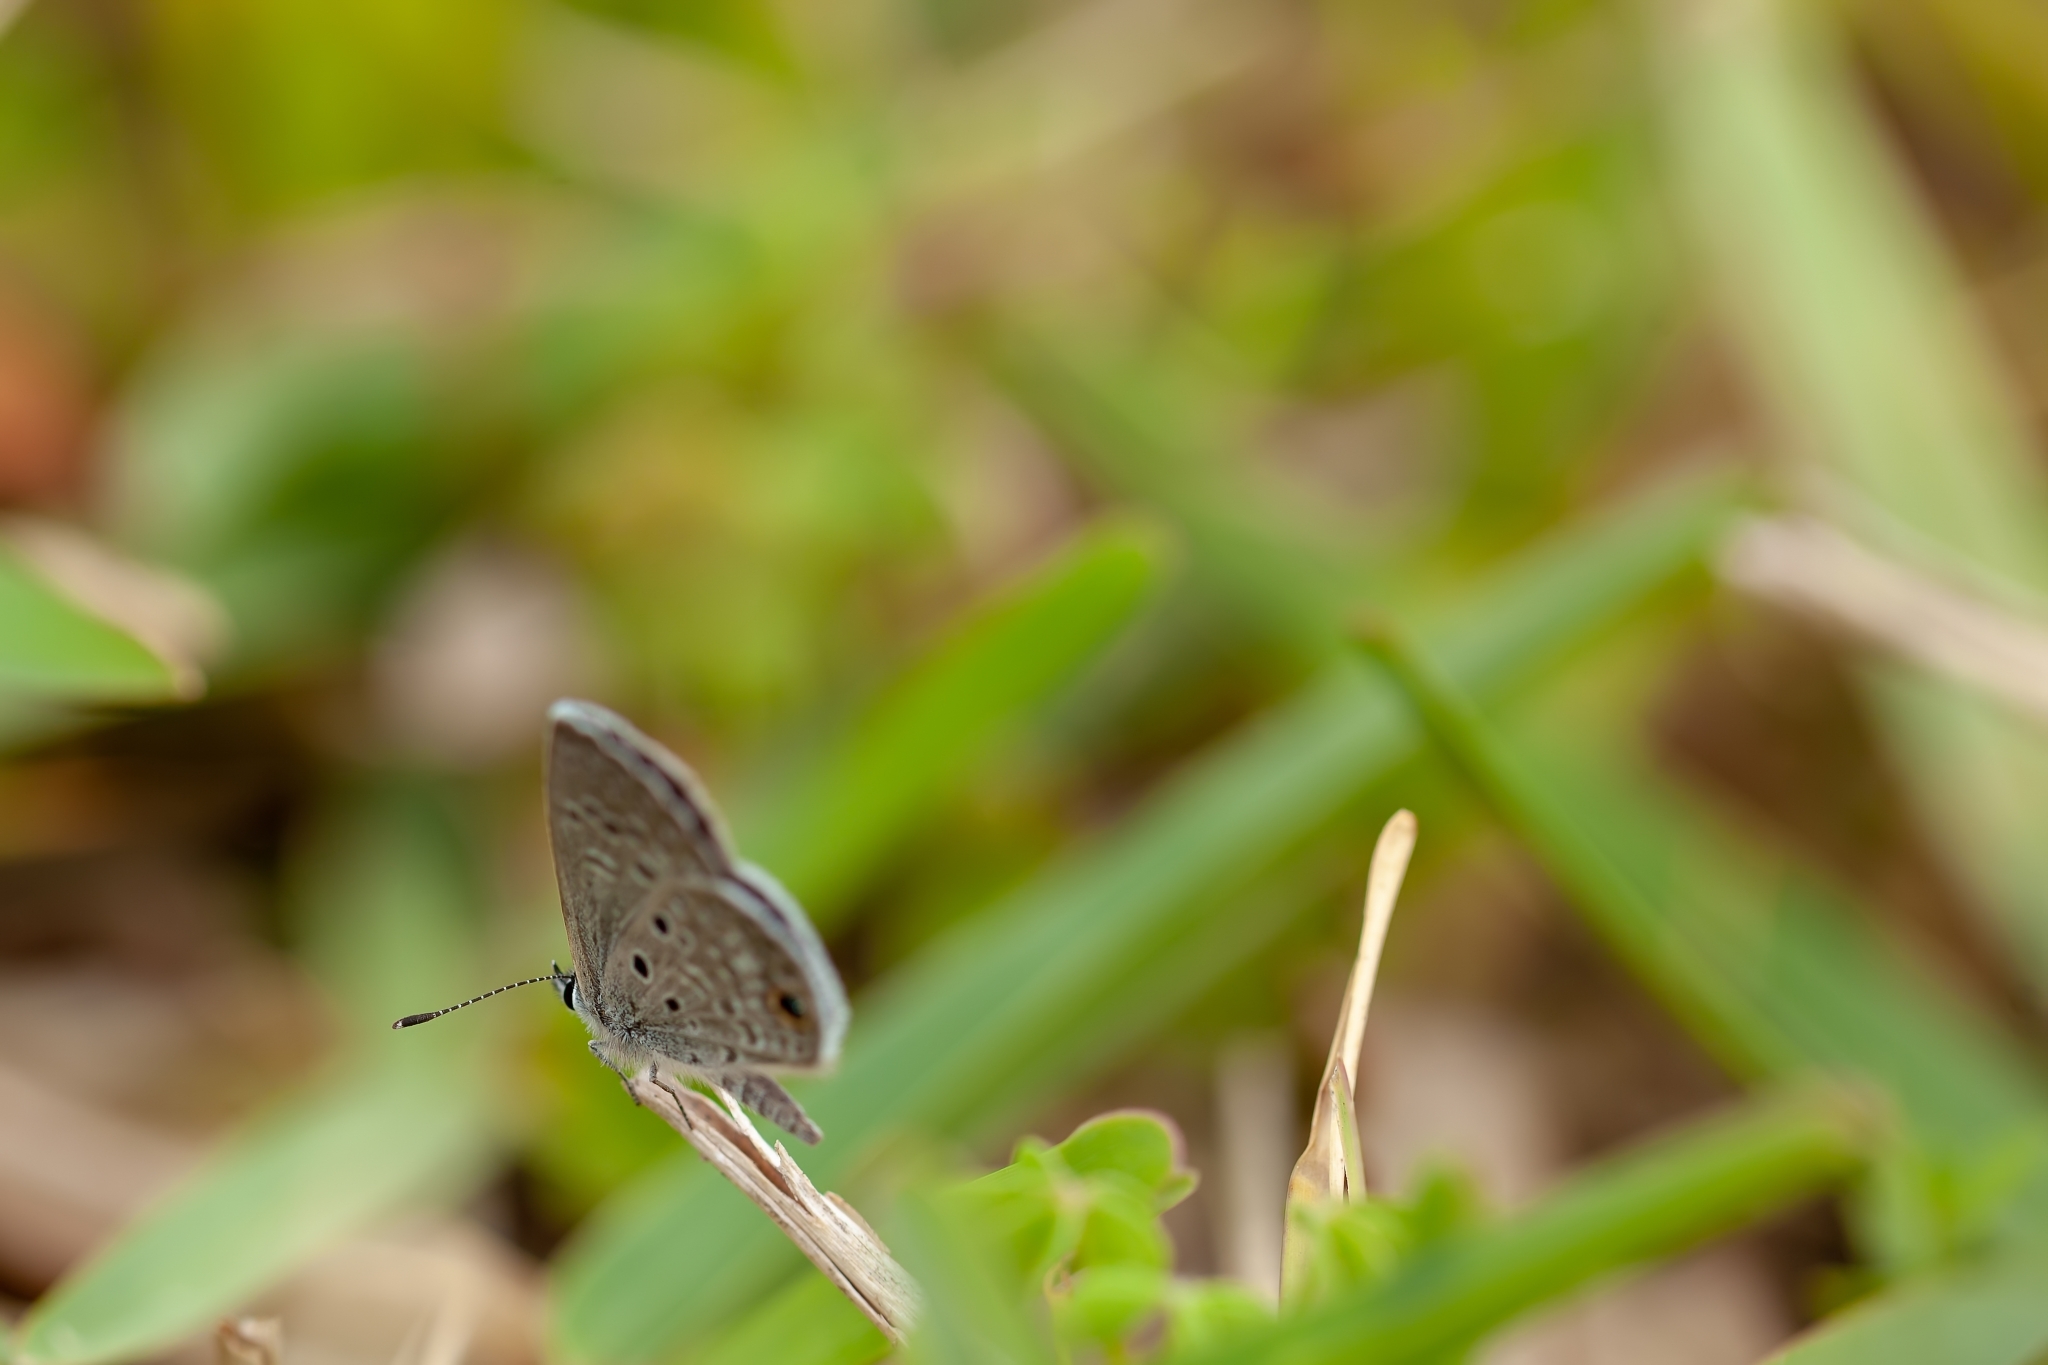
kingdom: Animalia
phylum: Arthropoda
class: Insecta
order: Lepidoptera
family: Lycaenidae
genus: Hemiargus
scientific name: Hemiargus ceraunus
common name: Ceraunus blue
